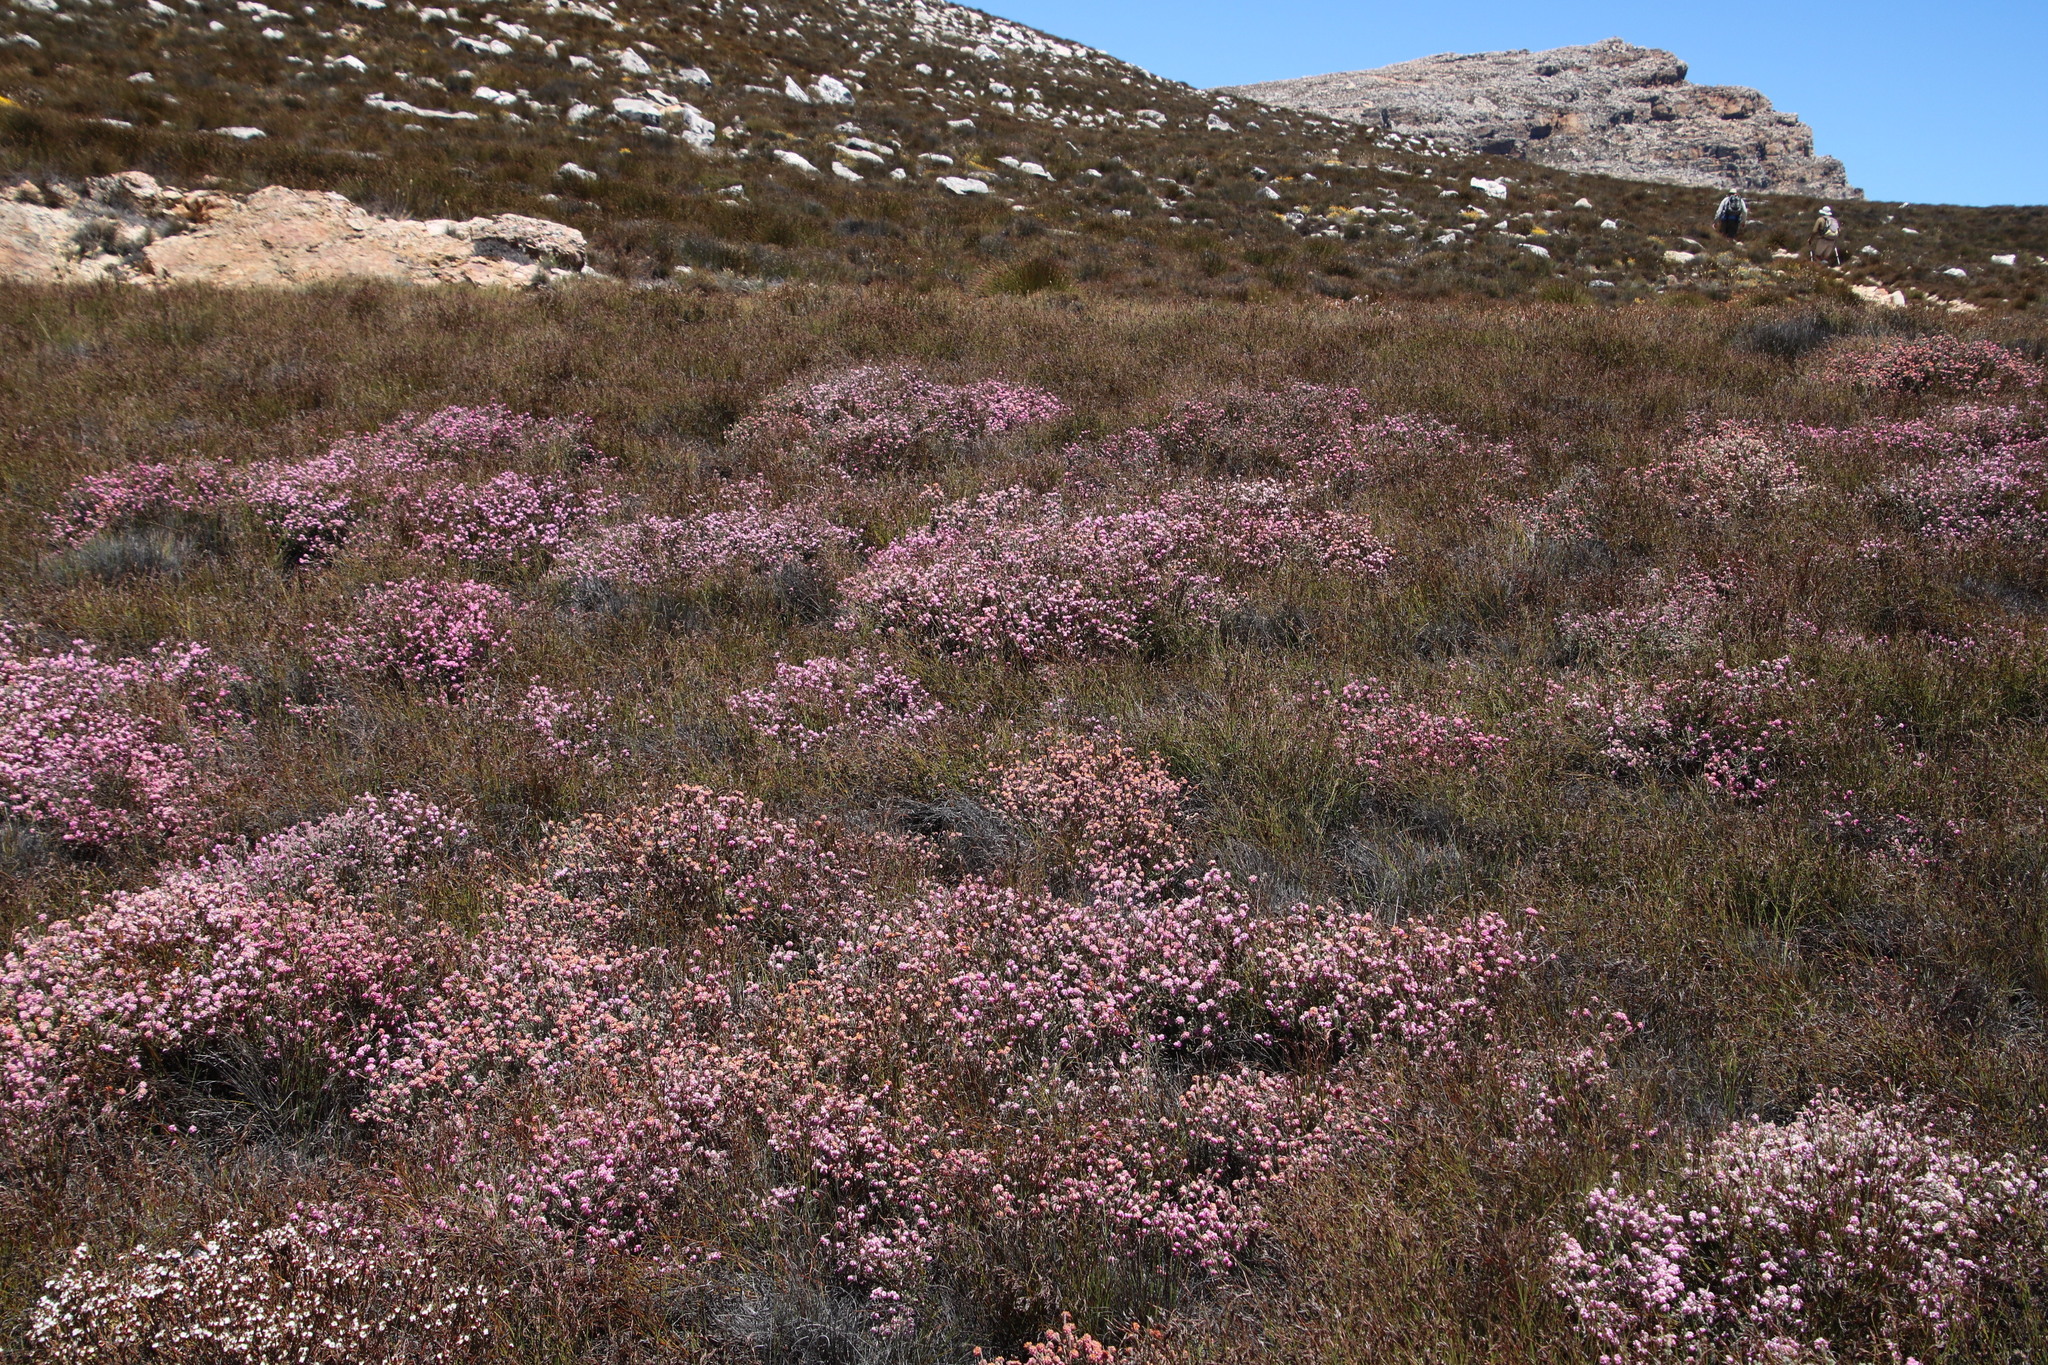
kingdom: Plantae
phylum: Tracheophyta
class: Magnoliopsida
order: Ericales
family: Ericaceae
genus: Erica
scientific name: Erica maderi
